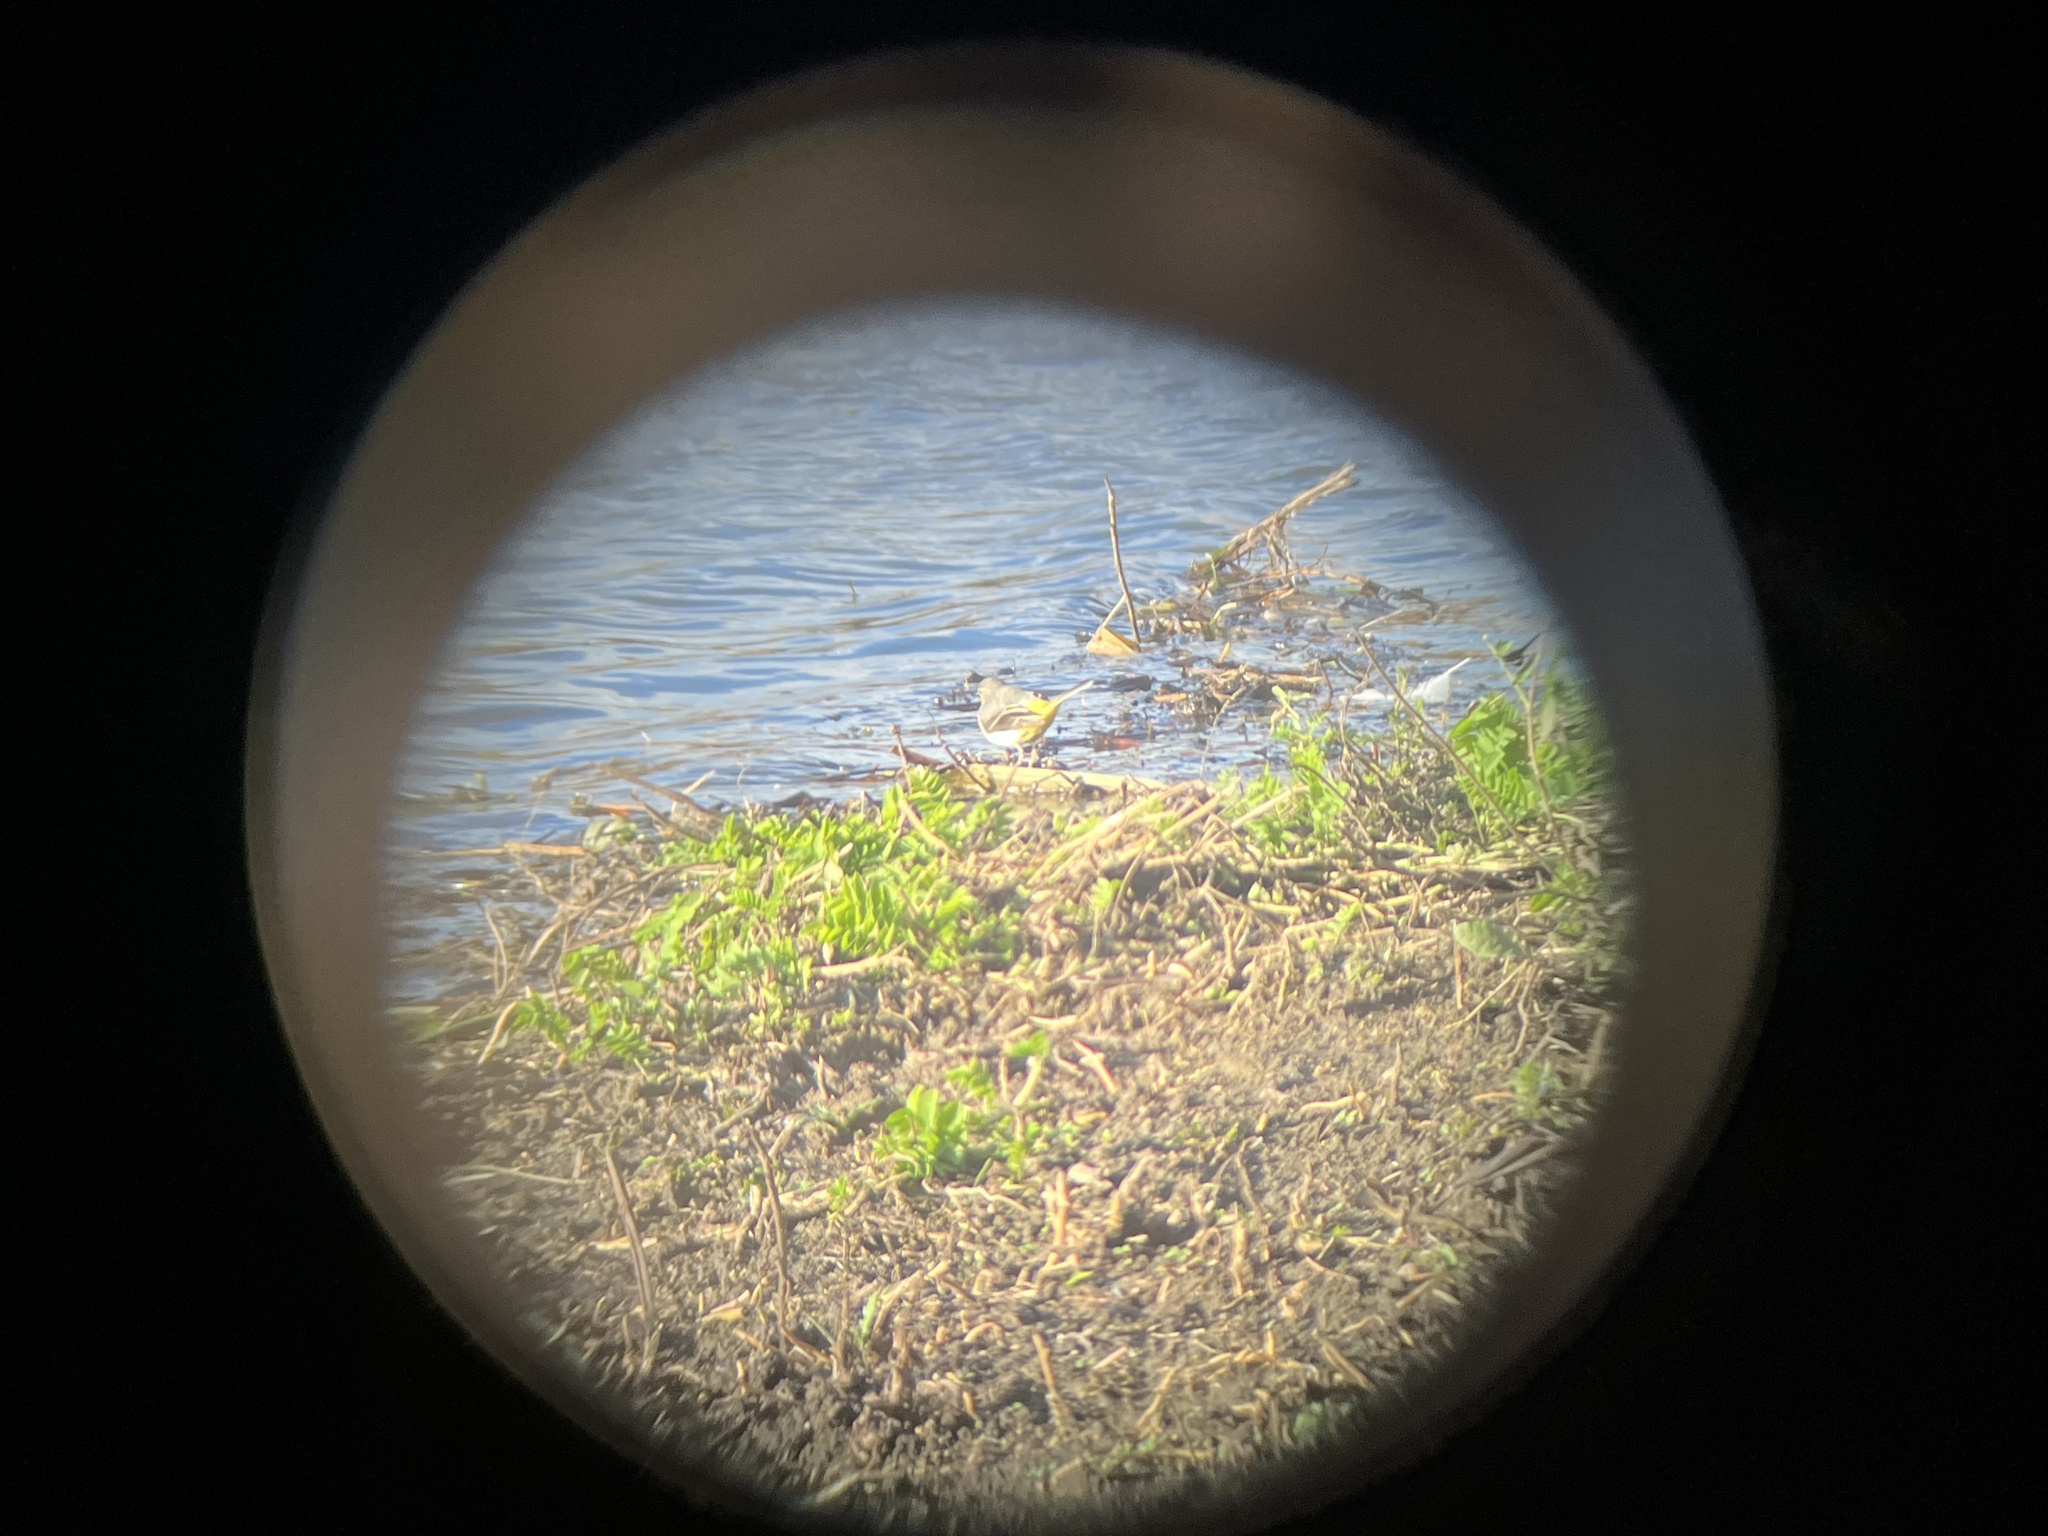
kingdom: Animalia
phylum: Chordata
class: Aves
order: Passeriformes
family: Motacillidae
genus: Motacilla
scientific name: Motacilla cinerea
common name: Grey wagtail
